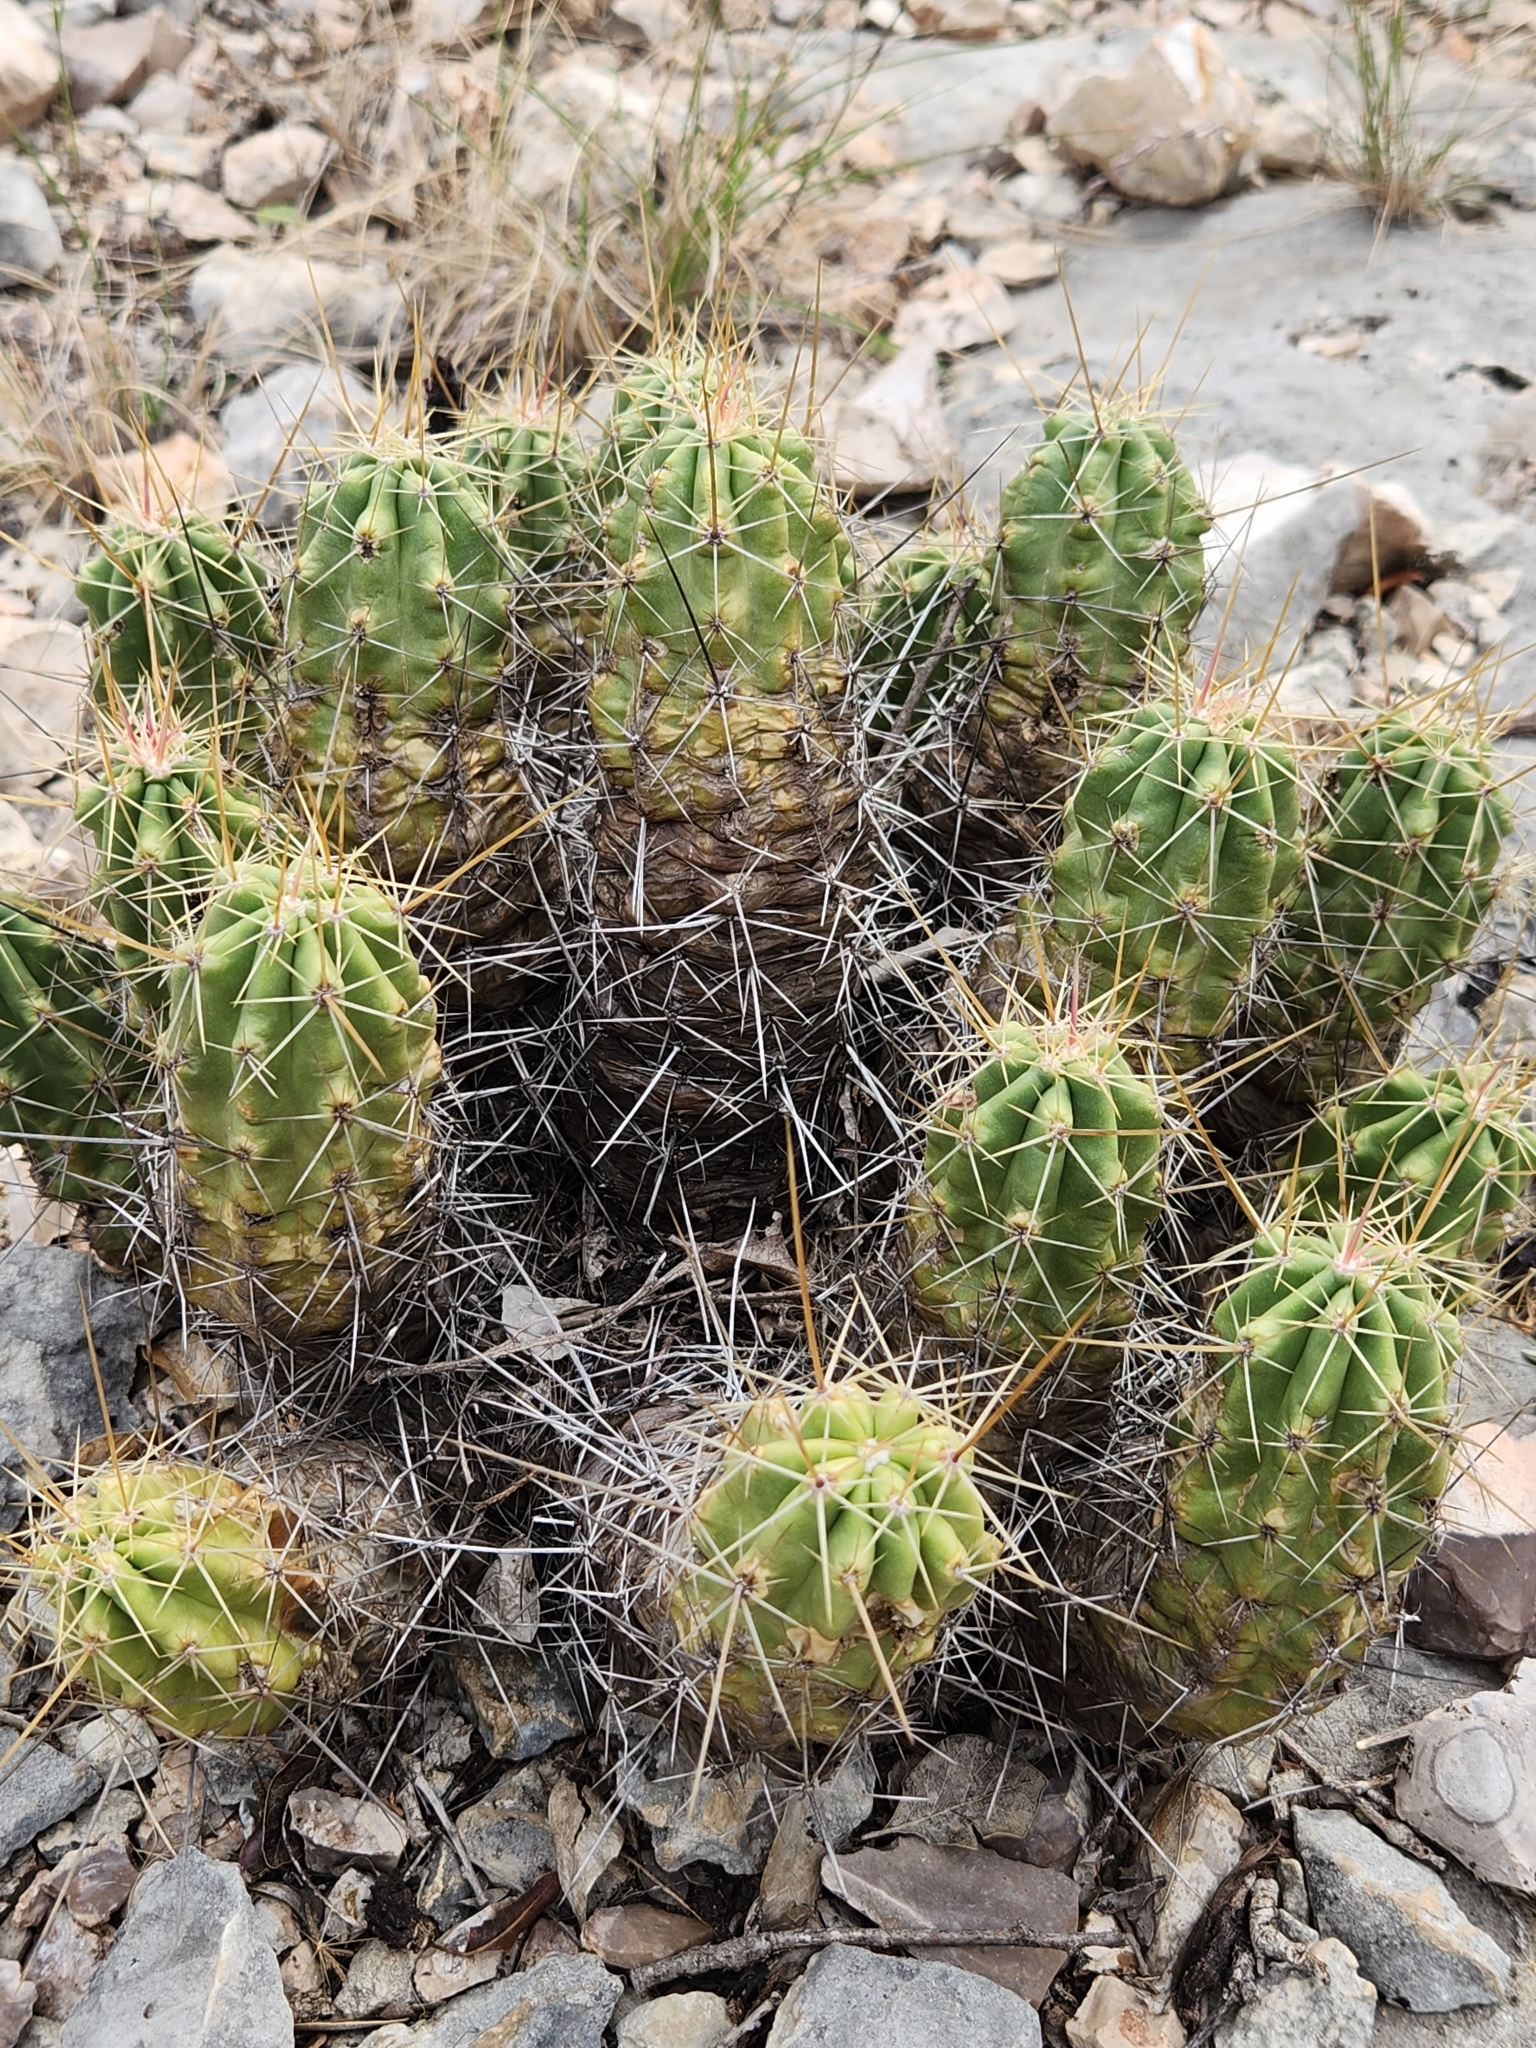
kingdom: Plantae
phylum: Tracheophyta
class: Magnoliopsida
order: Caryophyllales
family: Cactaceae
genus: Echinocereus
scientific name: Echinocereus enneacanthus
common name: Pitaya
